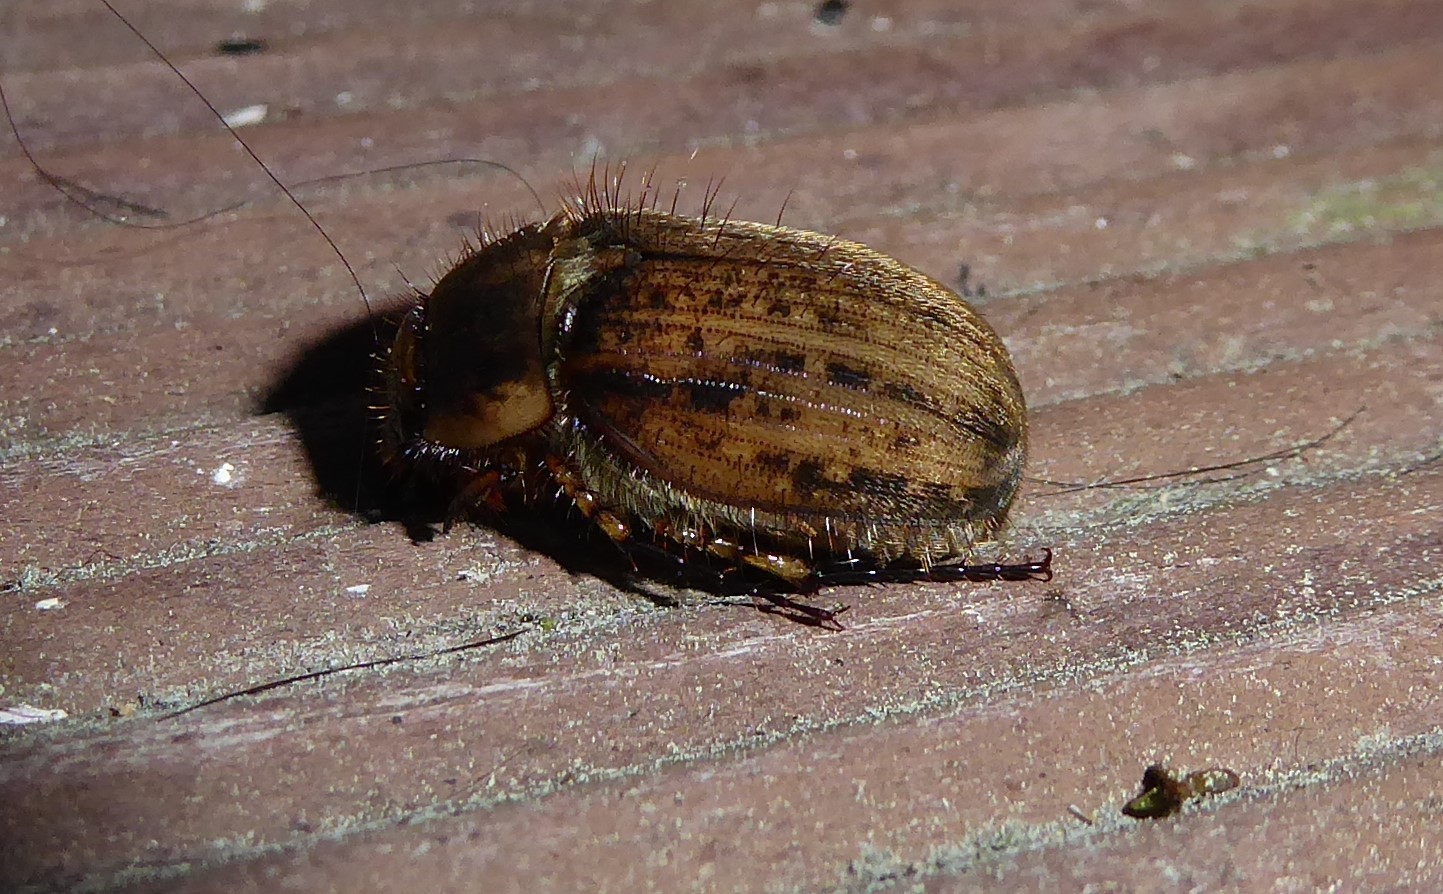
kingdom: Animalia
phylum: Arthropoda
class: Insecta
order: Coleoptera
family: Scarabaeidae
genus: Odontria
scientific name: Odontria striata
